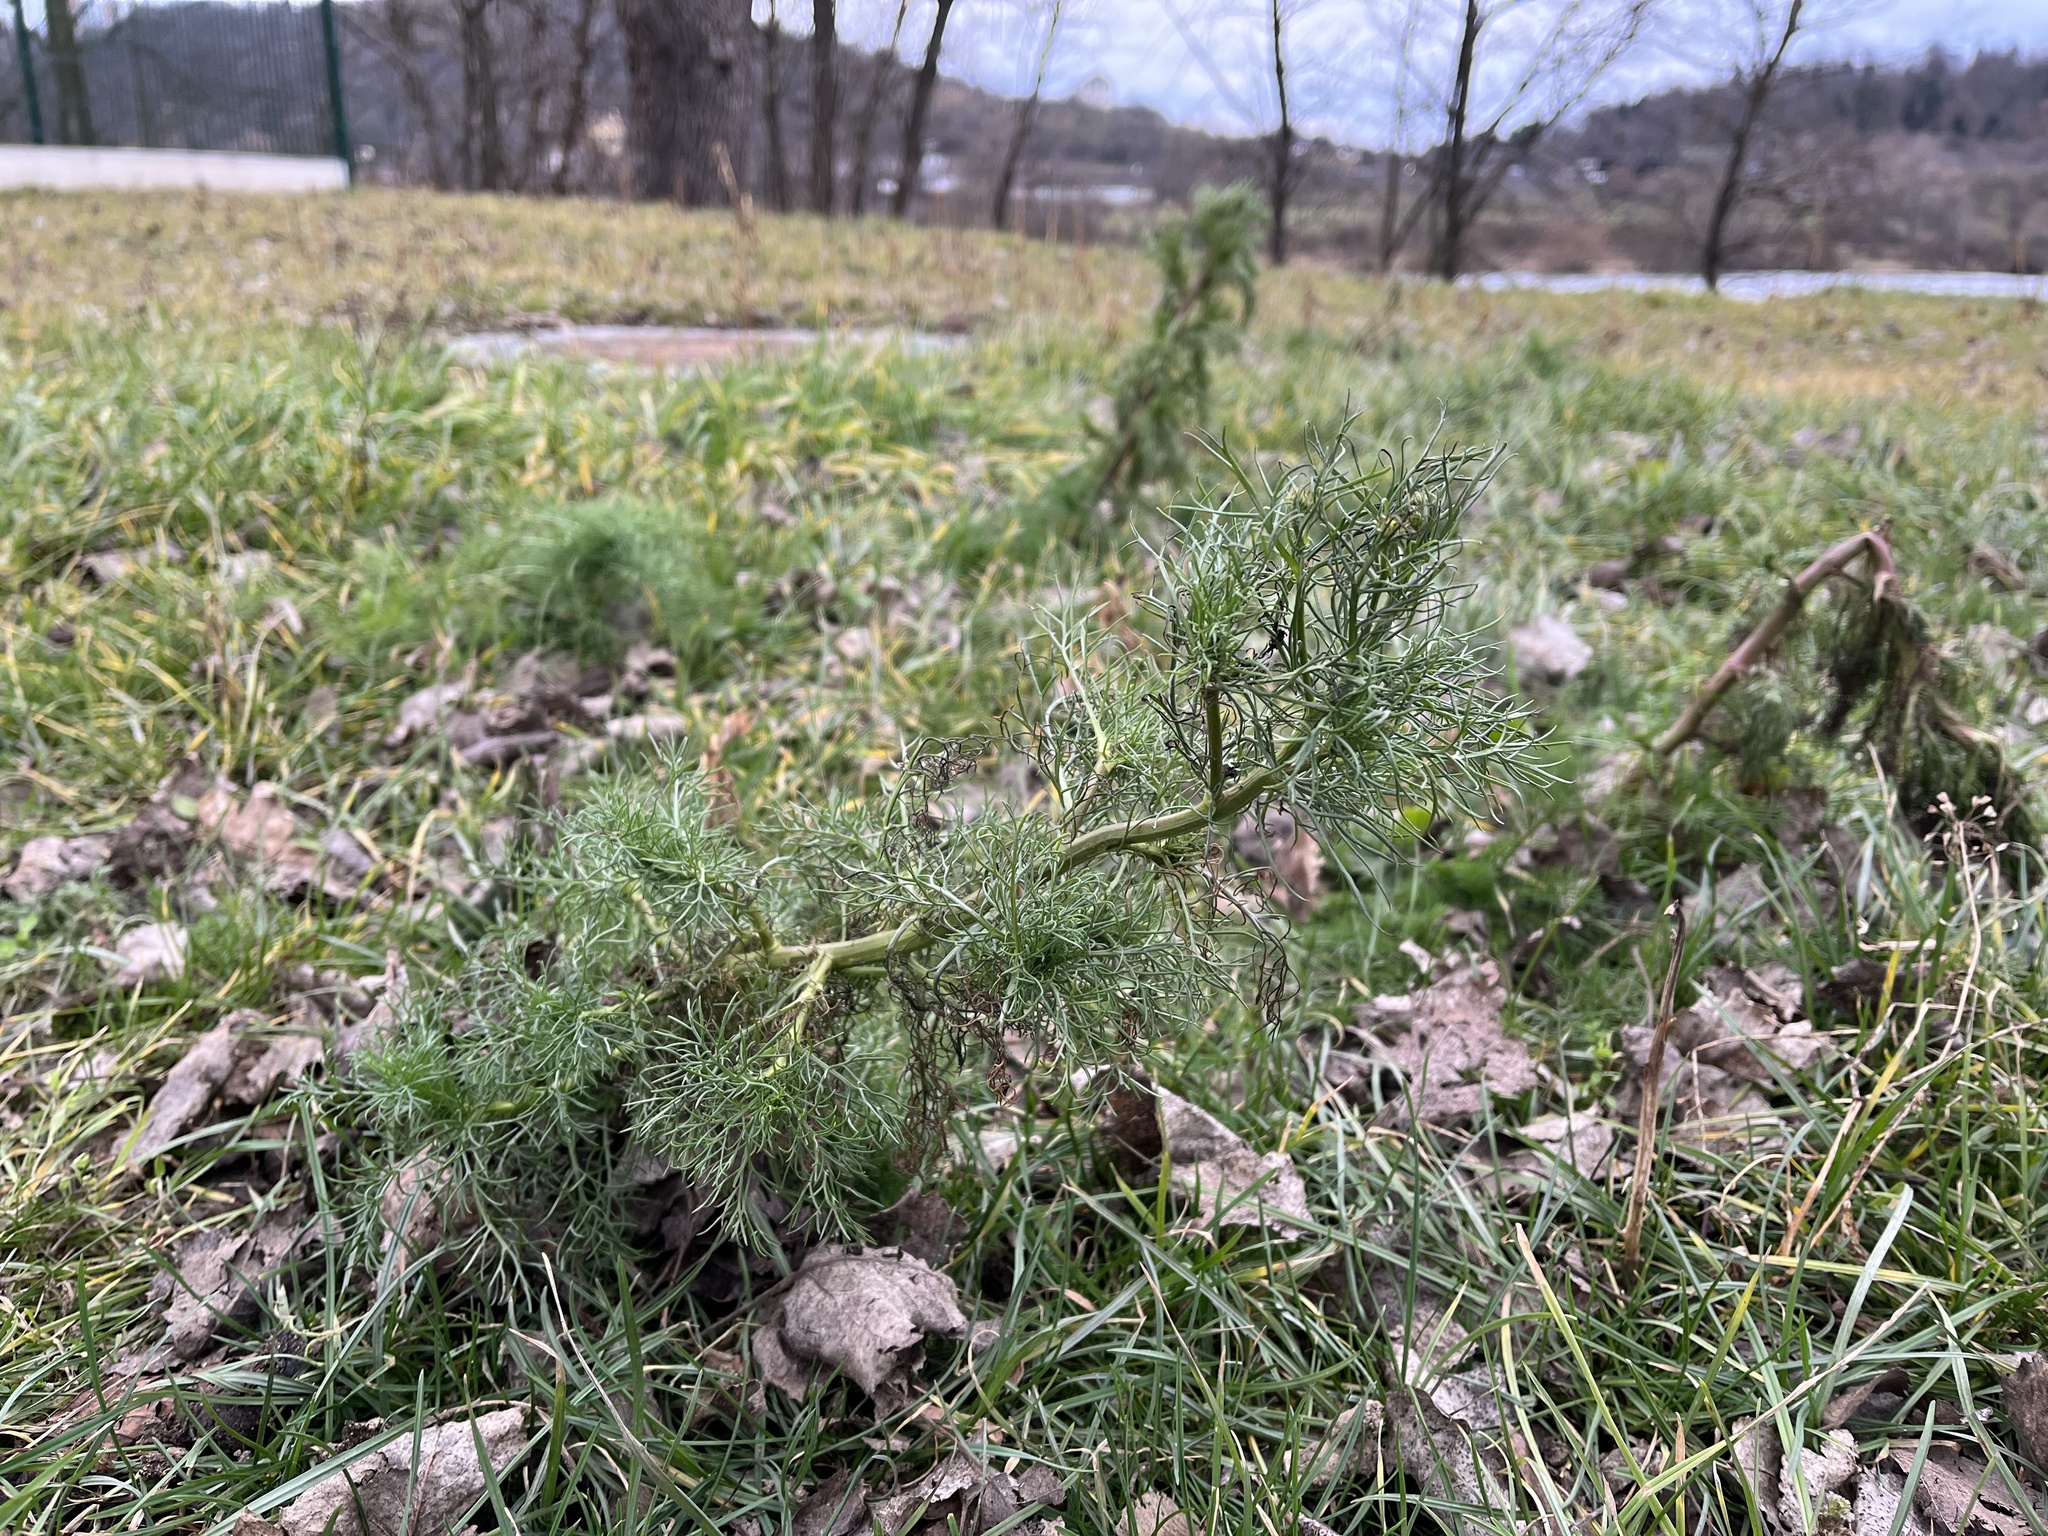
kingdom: Plantae
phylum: Tracheophyta
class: Magnoliopsida
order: Asterales
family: Asteraceae
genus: Tripleurospermum
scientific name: Tripleurospermum inodorum
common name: Scentless mayweed
